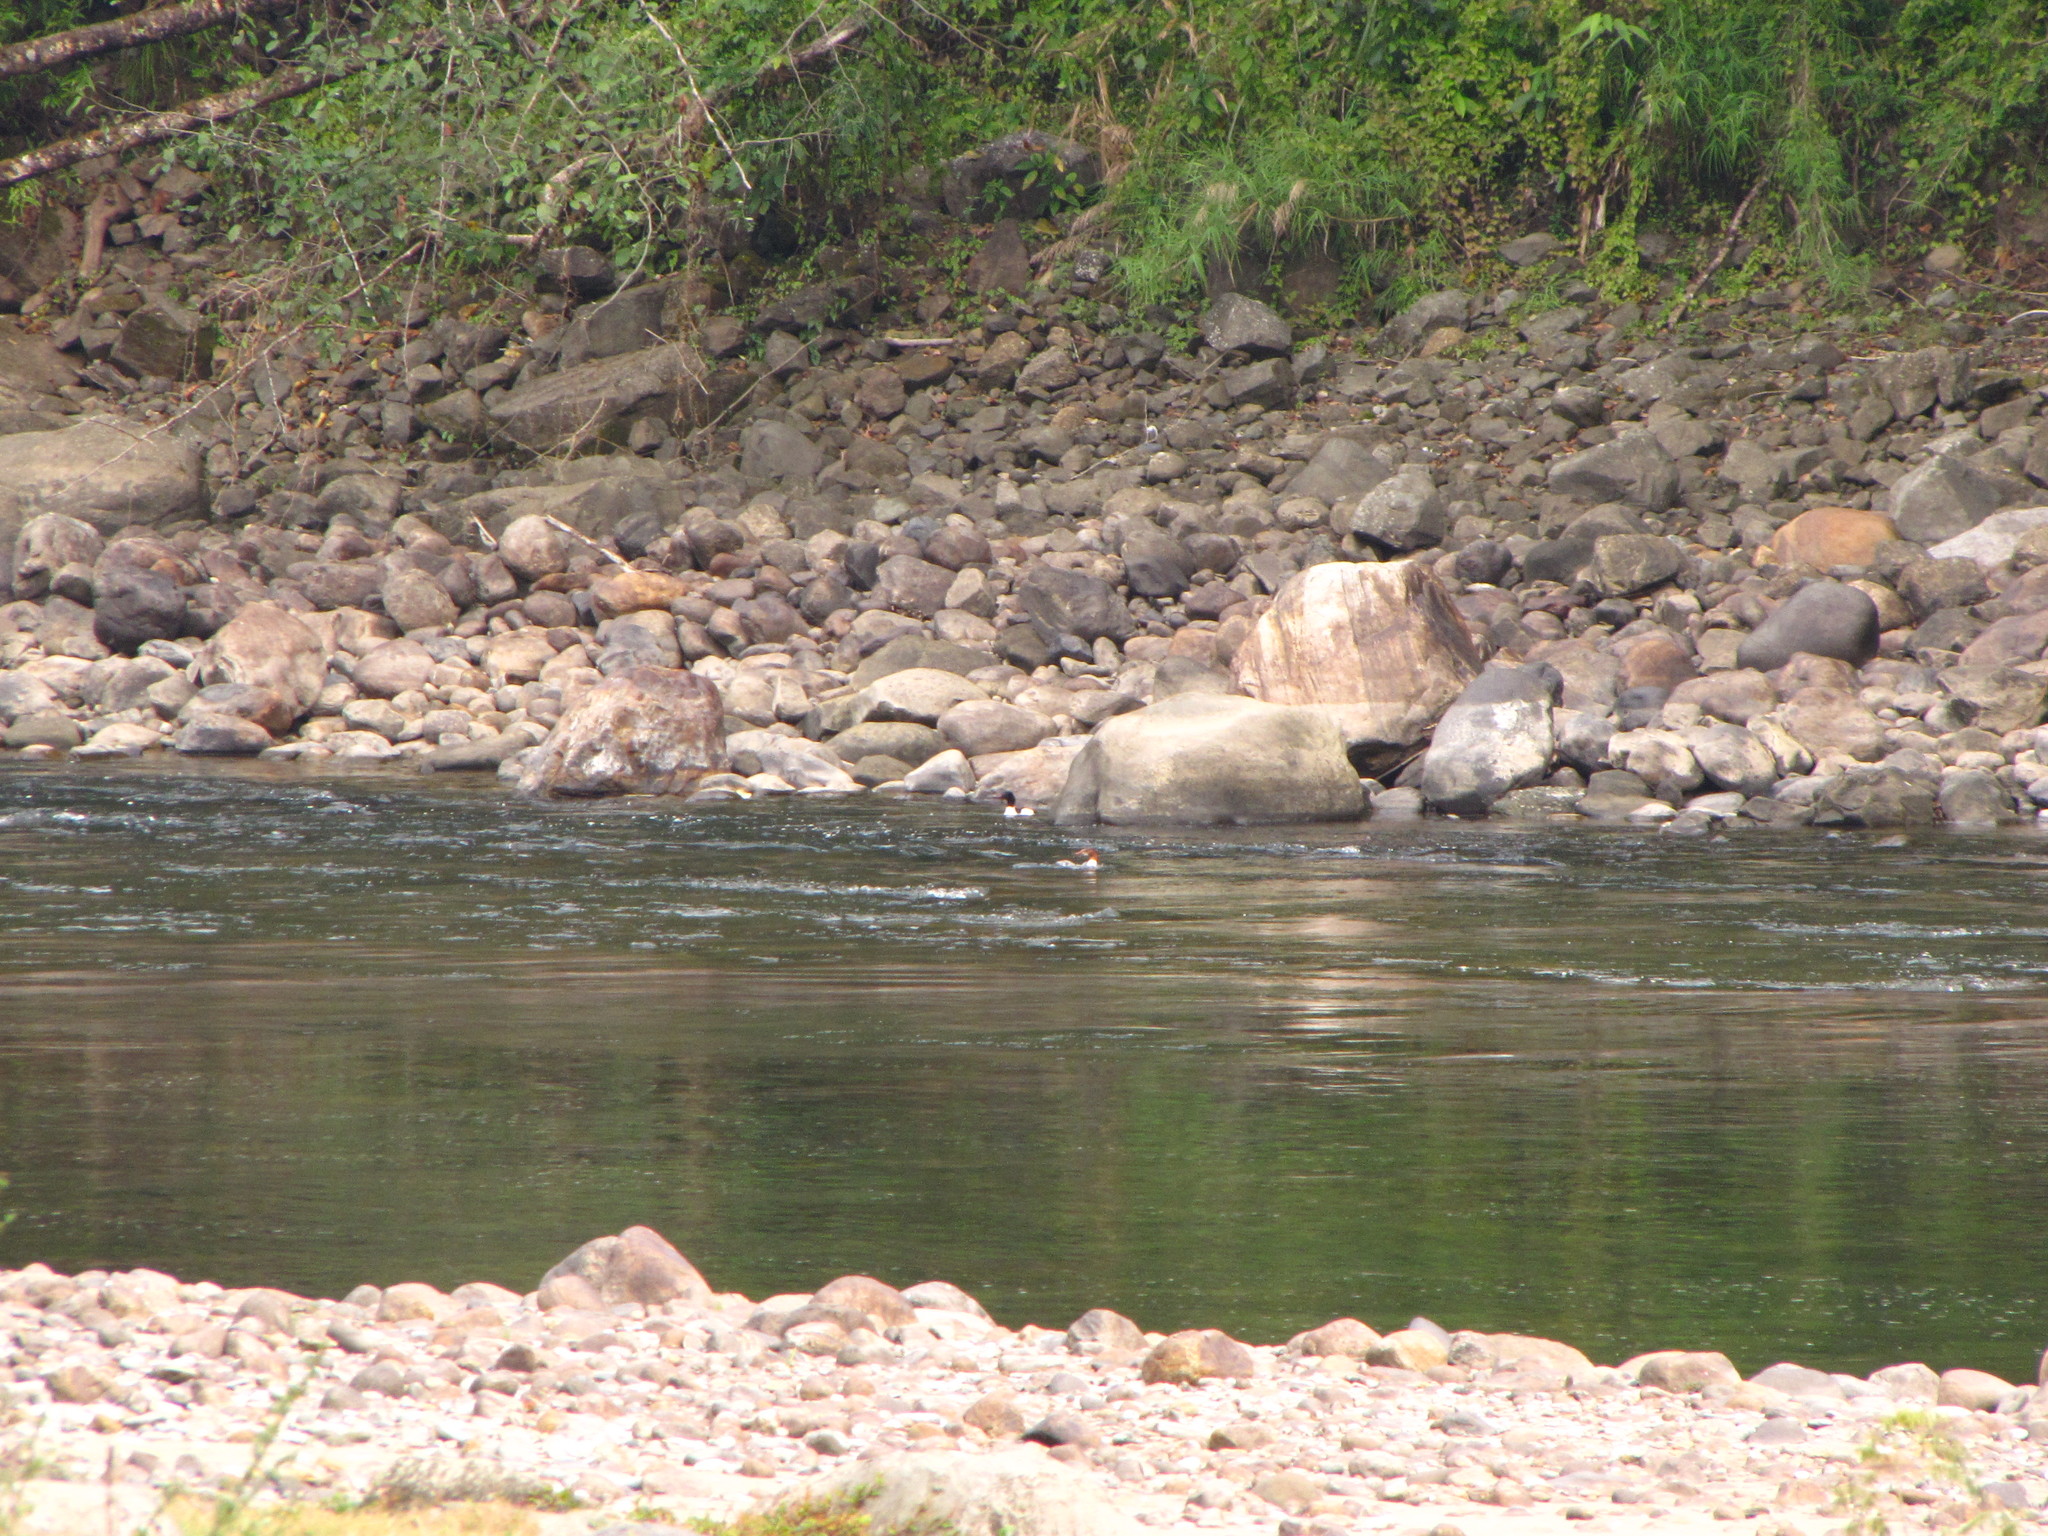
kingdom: Animalia
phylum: Chordata
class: Aves
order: Anseriformes
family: Anatidae
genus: Mergus
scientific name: Mergus merganser
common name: Common merganser
